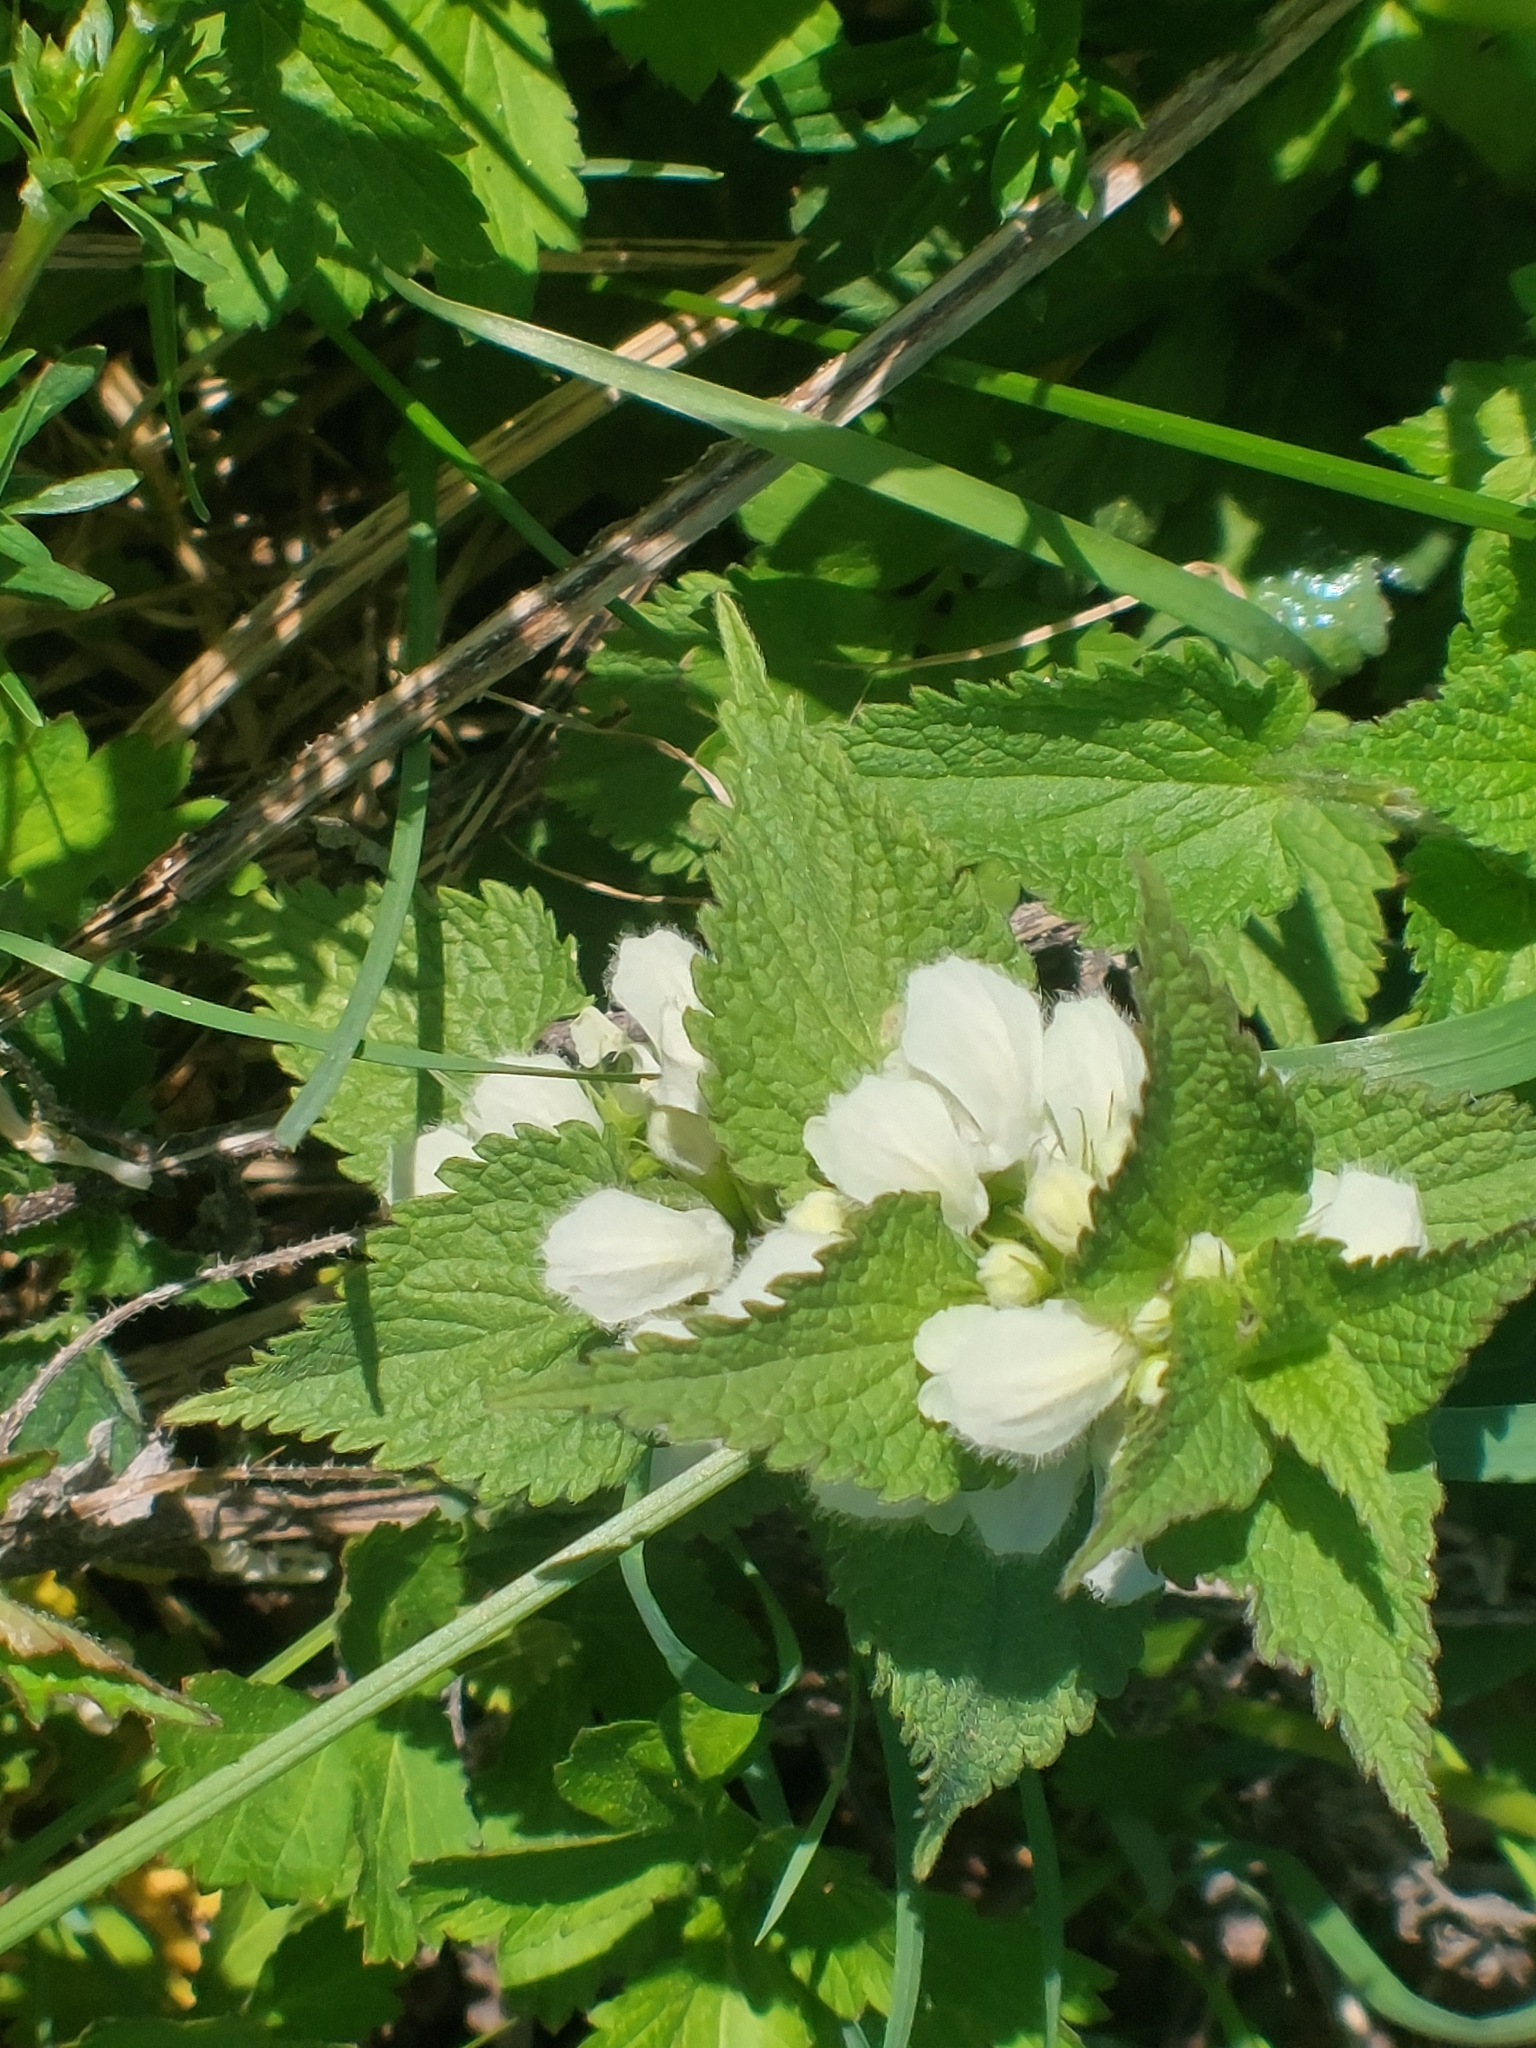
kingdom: Plantae
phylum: Tracheophyta
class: Magnoliopsida
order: Lamiales
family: Lamiaceae
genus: Lamium
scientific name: Lamium album
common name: White dead-nettle
